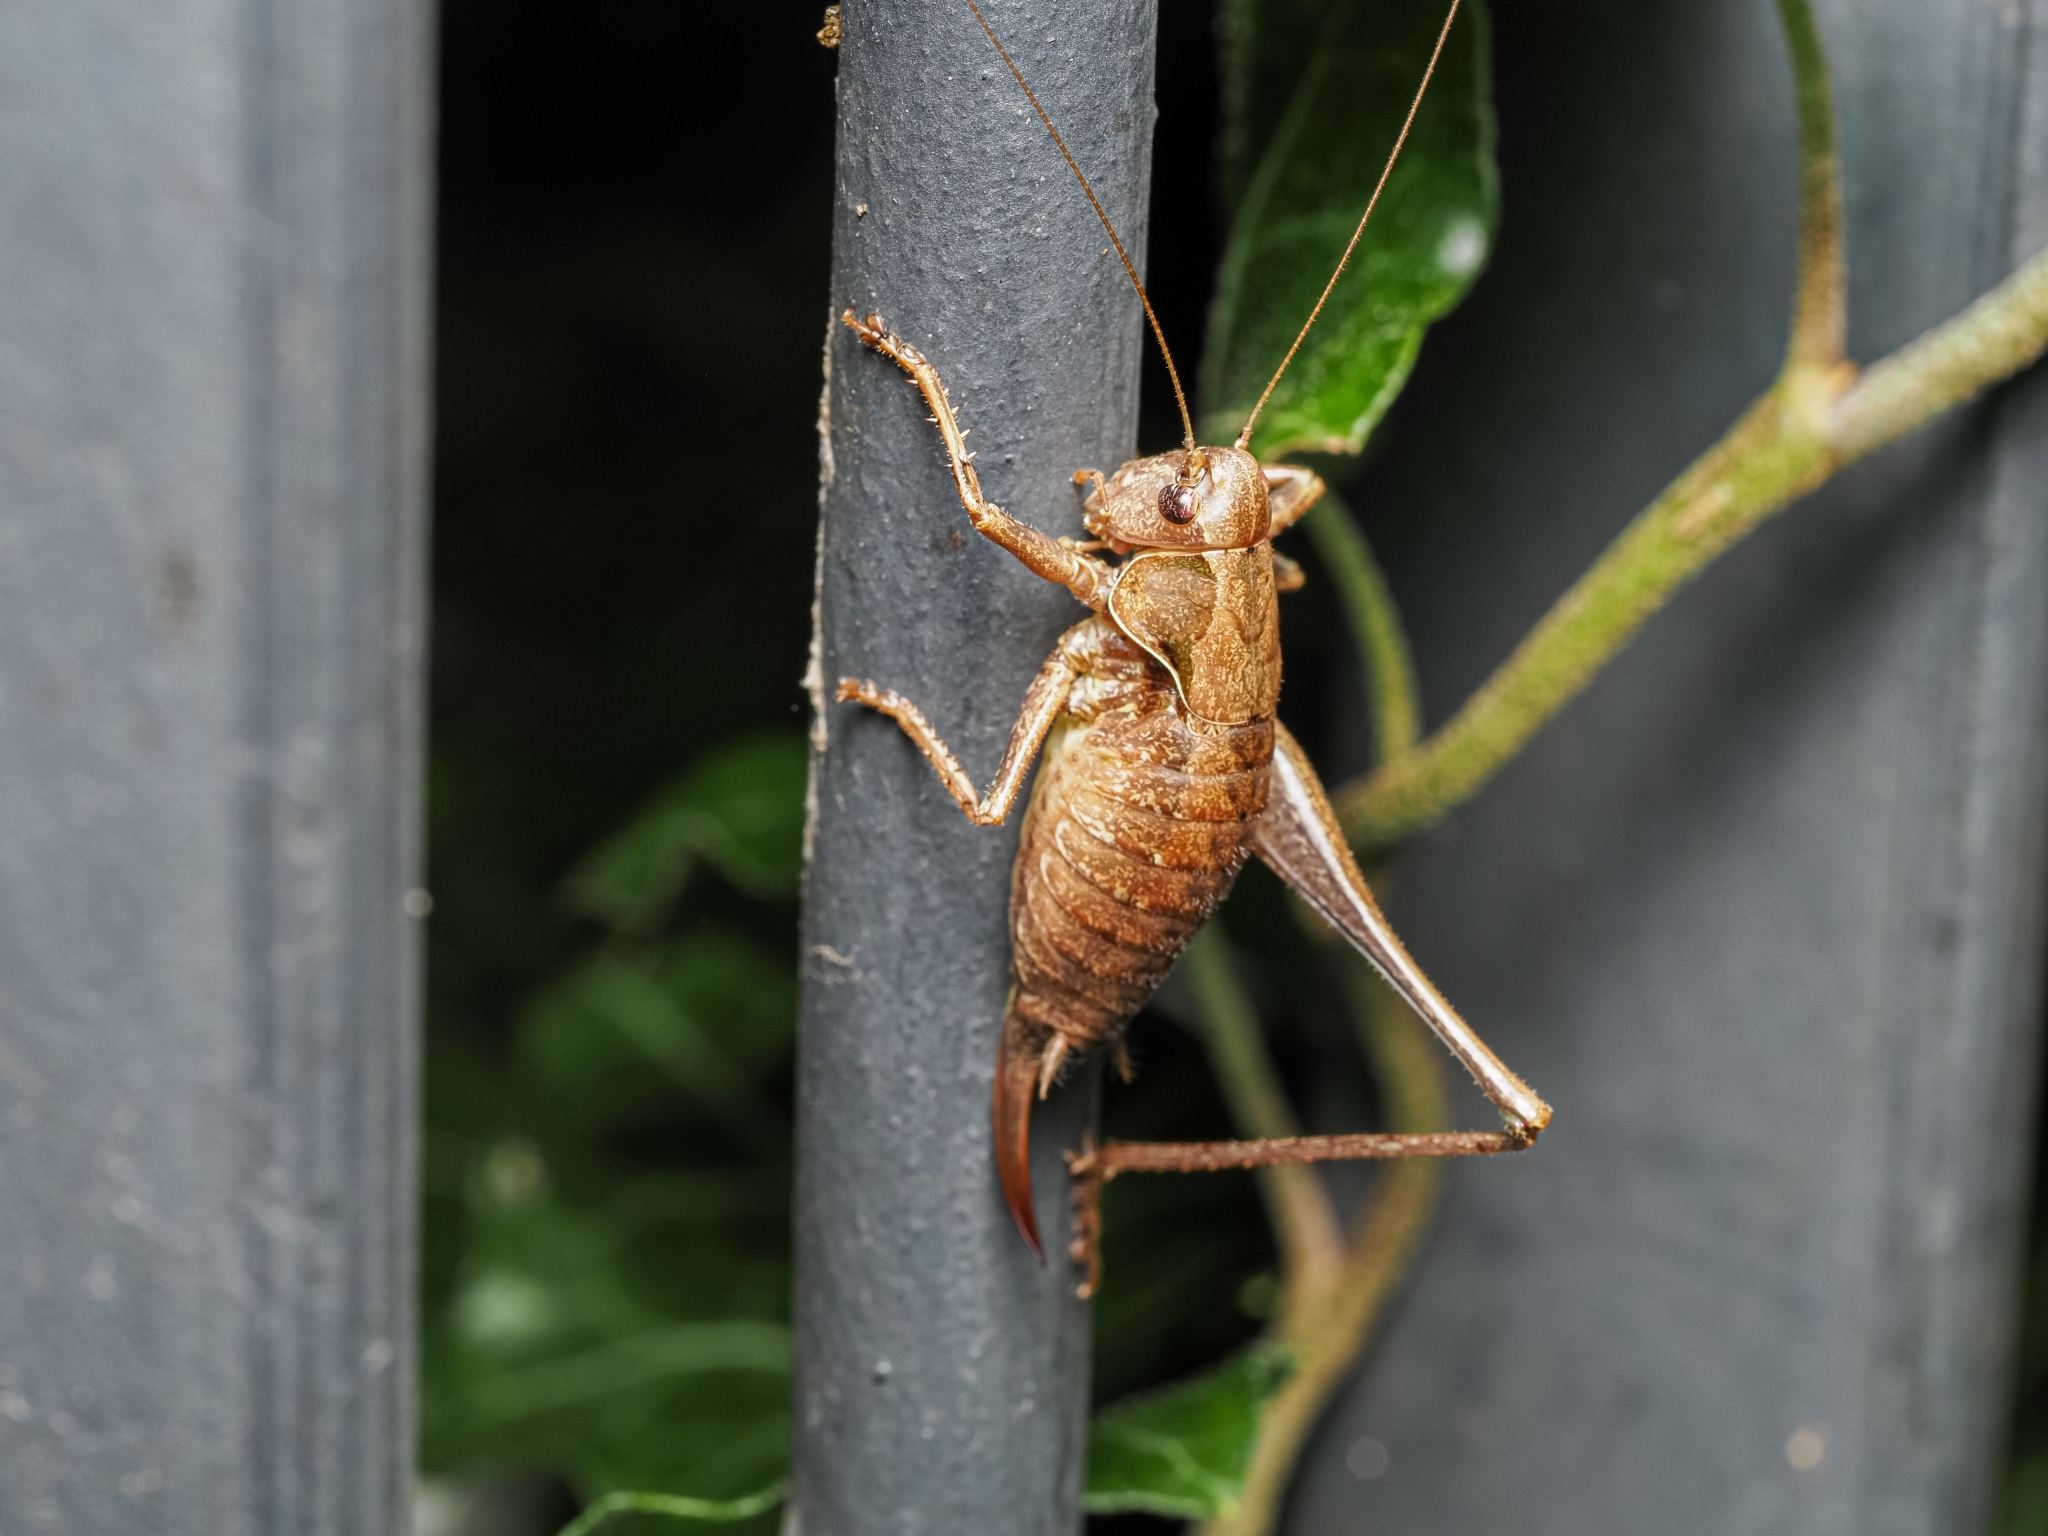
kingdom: Animalia
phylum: Arthropoda
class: Insecta
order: Orthoptera
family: Tettigoniidae
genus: Pholidoptera
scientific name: Pholidoptera griseoaptera
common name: Dark bush-cricket
